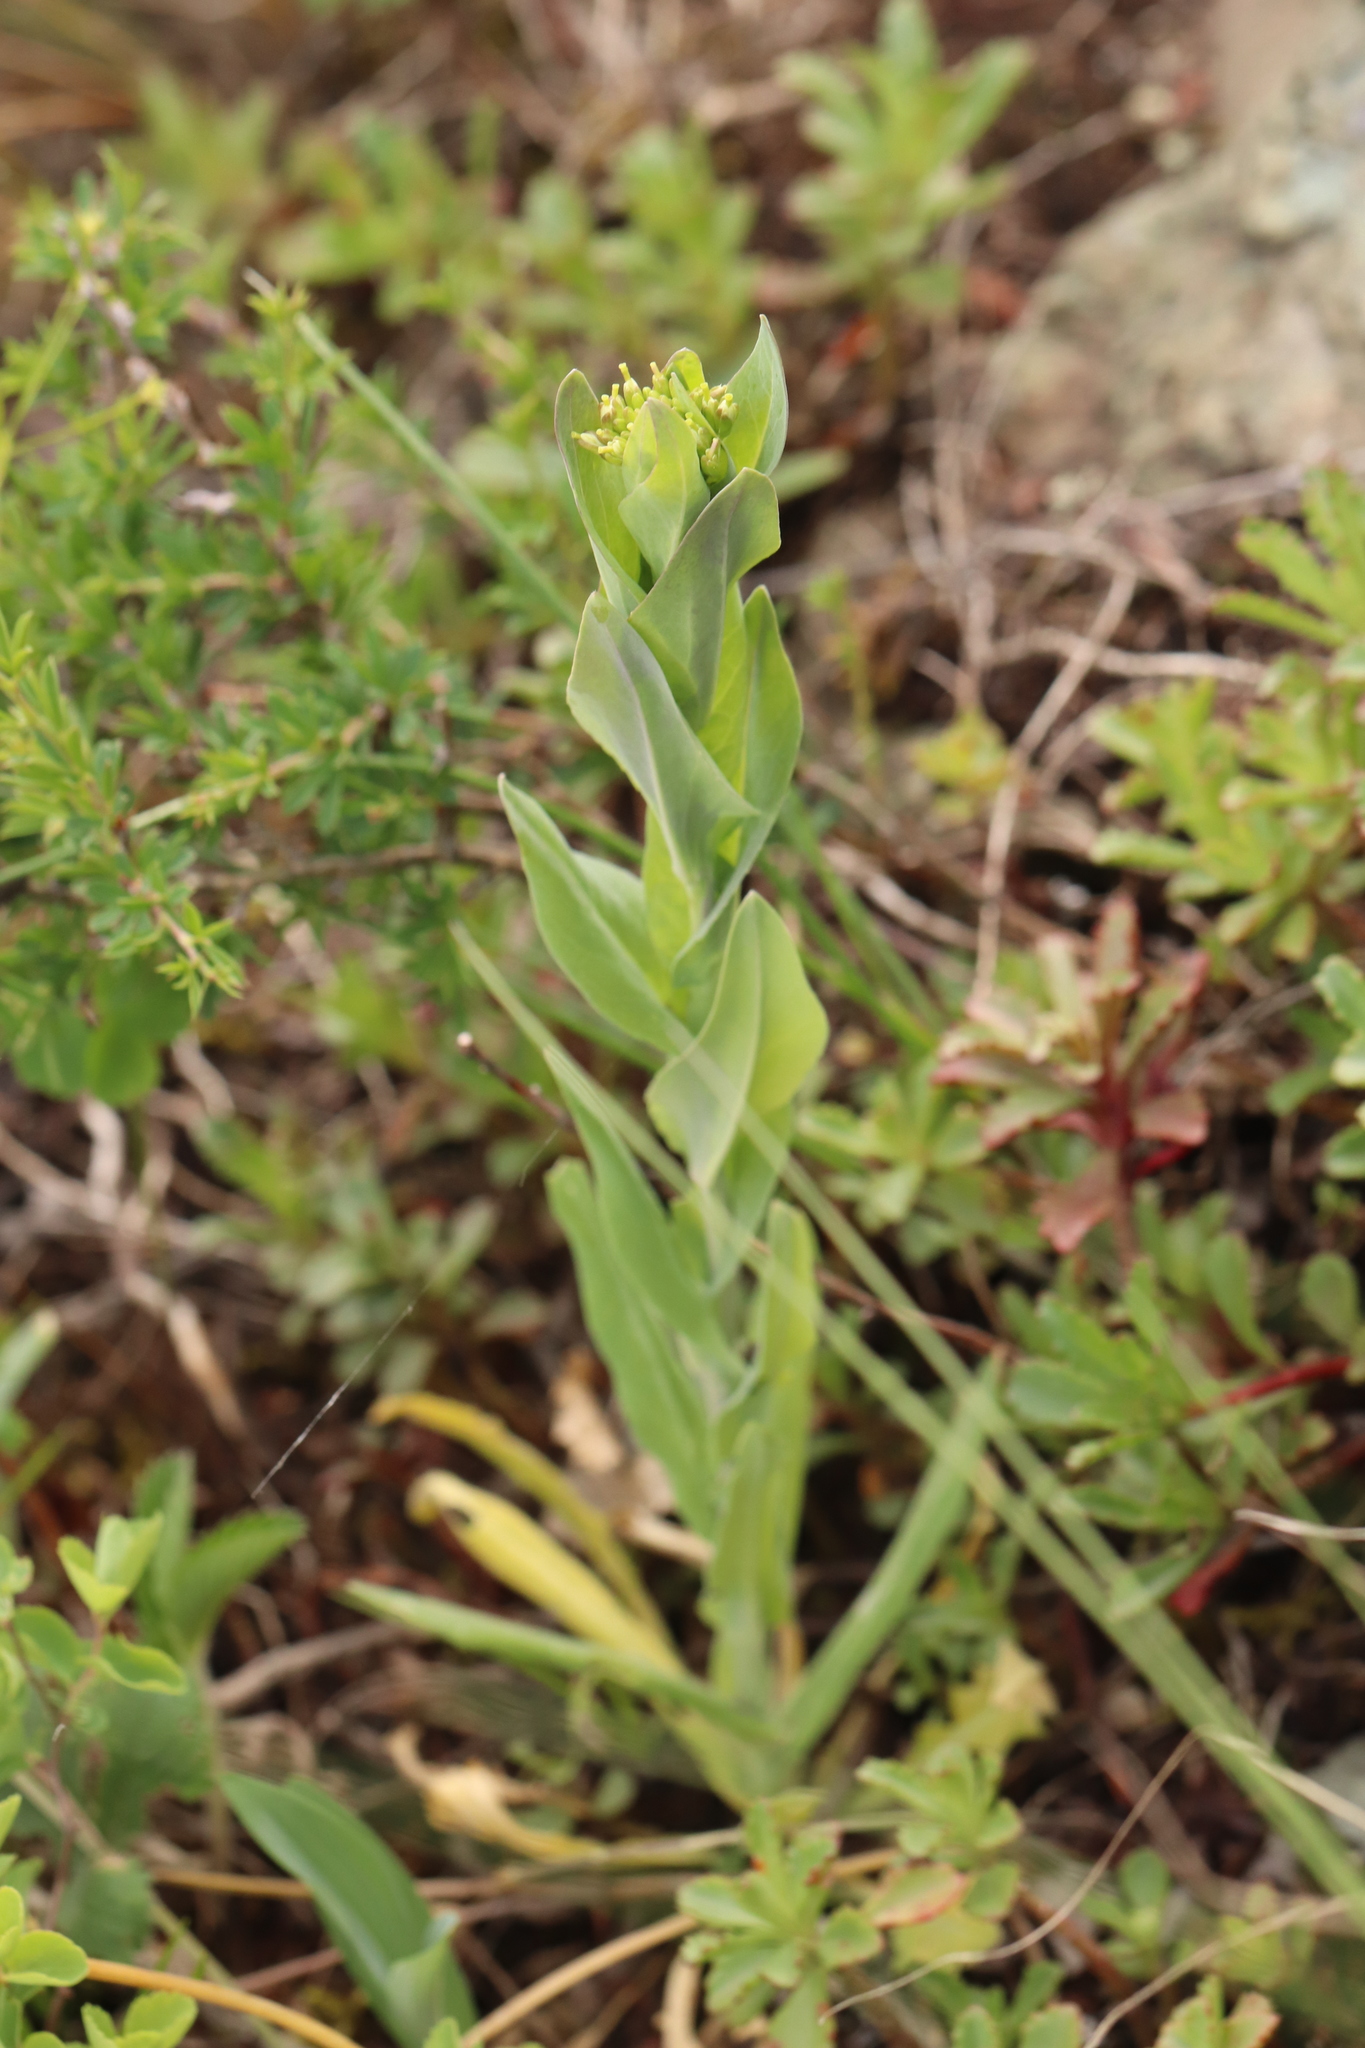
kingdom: Plantae
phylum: Tracheophyta
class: Magnoliopsida
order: Brassicales
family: Brassicaceae
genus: Turritis
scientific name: Turritis glabra
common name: Tower rockcress
